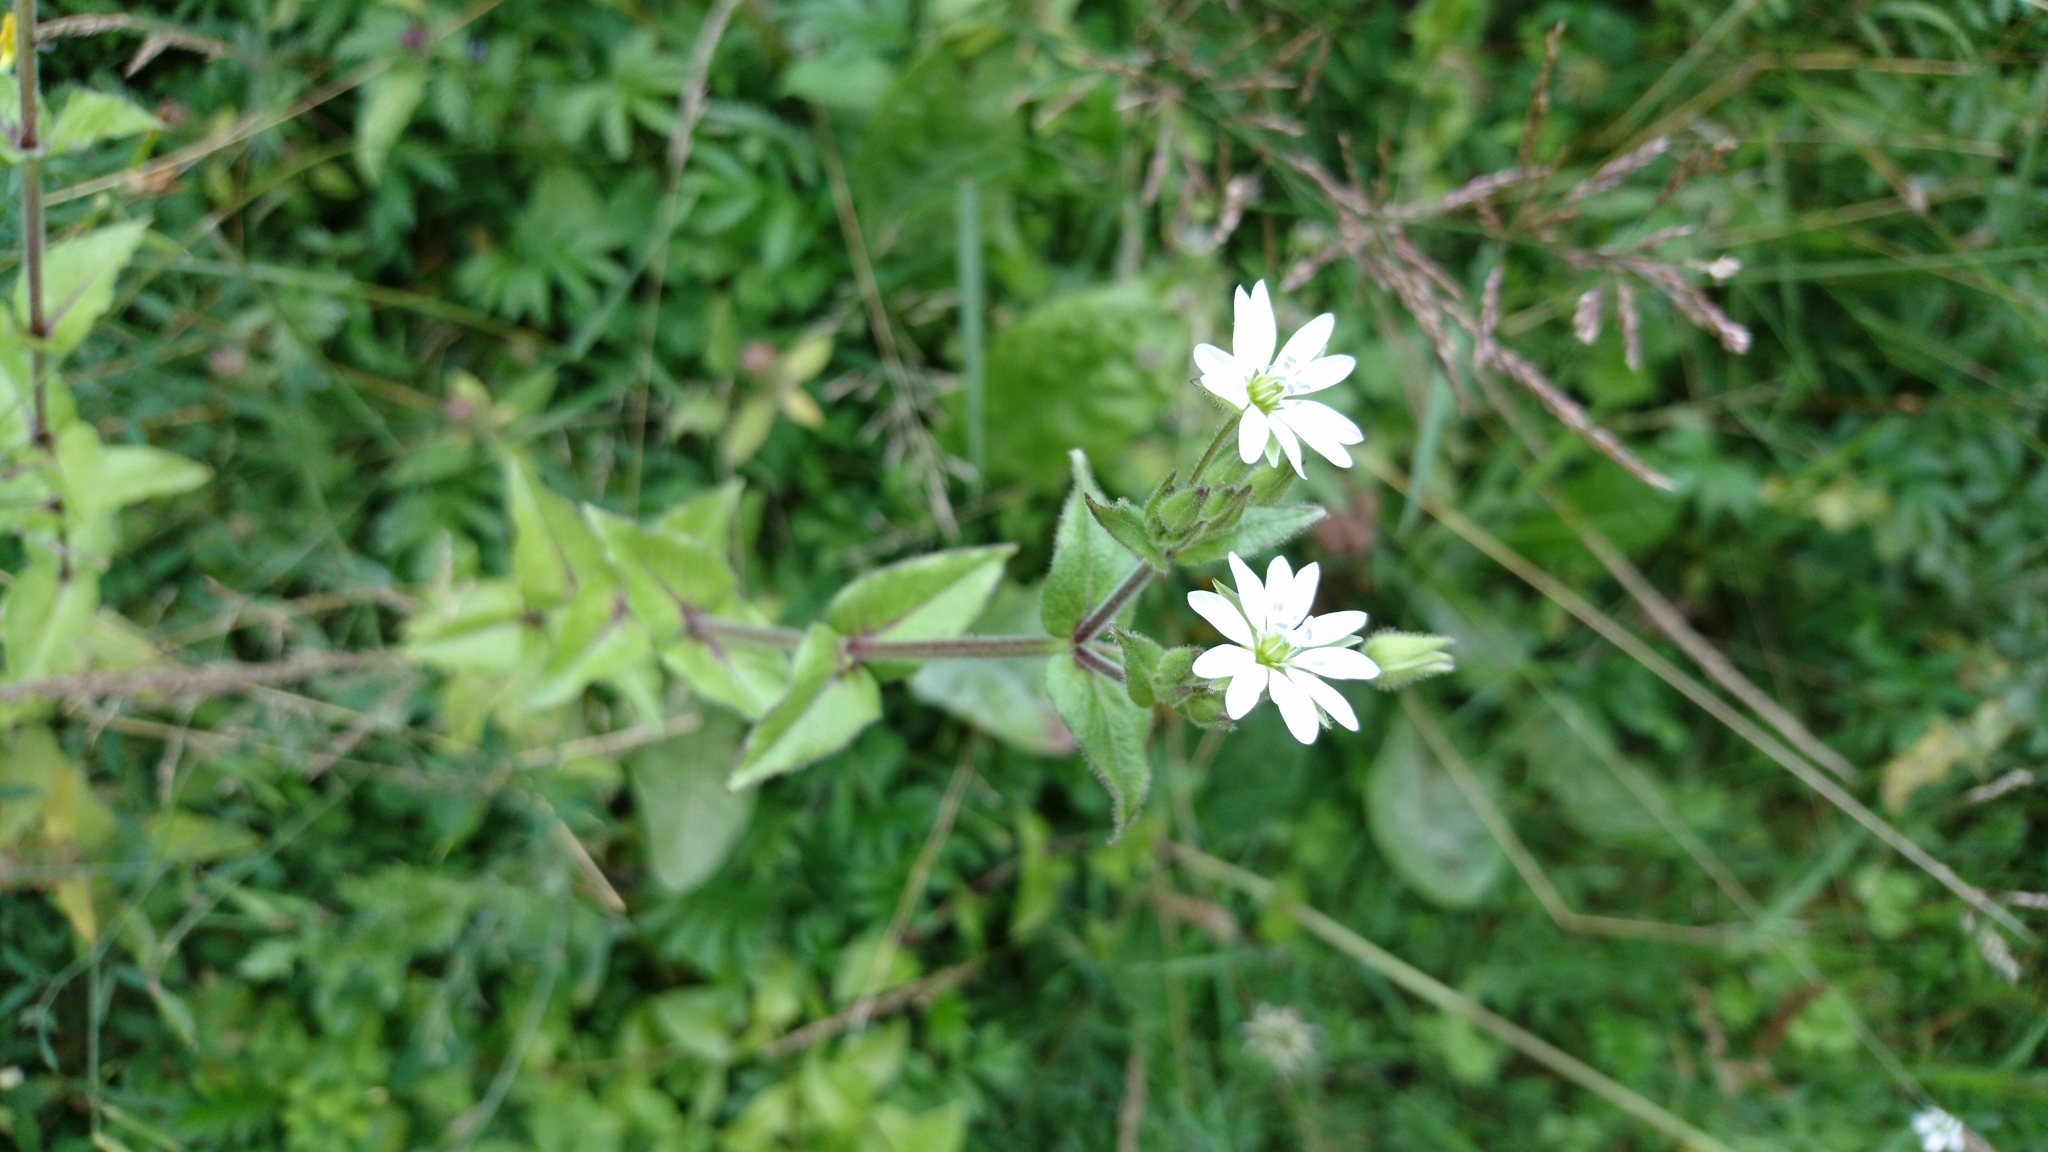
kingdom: Plantae
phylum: Tracheophyta
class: Magnoliopsida
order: Caryophyllales
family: Caryophyllaceae
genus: Stellaria
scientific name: Stellaria aquatica
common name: Water chickweed
